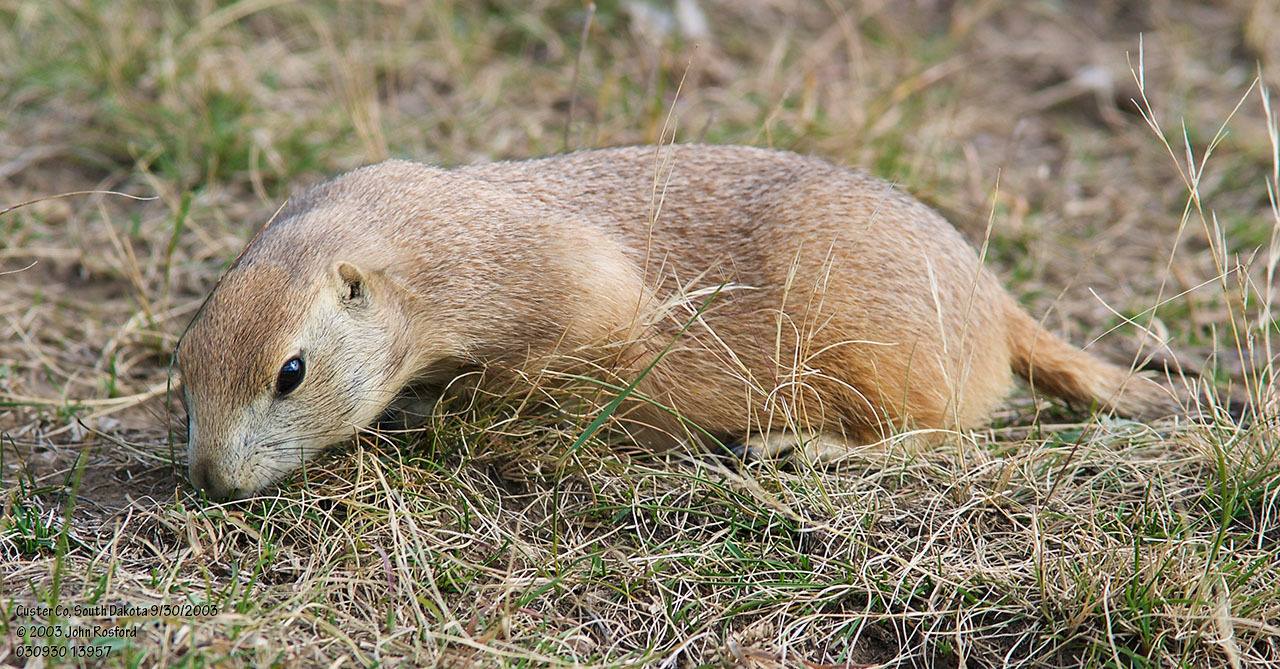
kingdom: Animalia
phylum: Chordata
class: Mammalia
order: Rodentia
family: Sciuridae
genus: Cynomys
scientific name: Cynomys ludovicianus
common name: Black-tailed prairie dog
